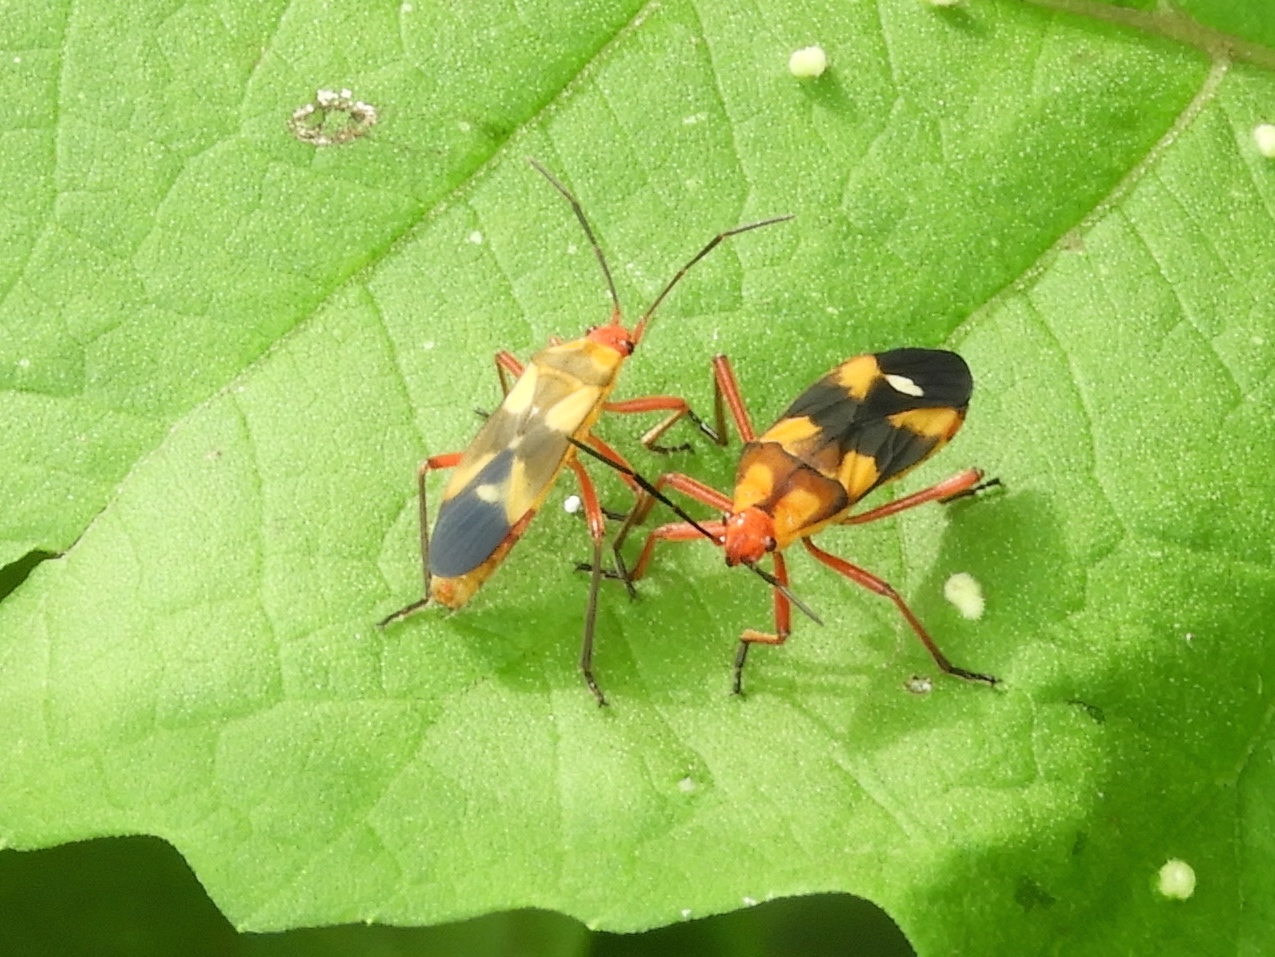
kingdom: Animalia
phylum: Arthropoda
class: Insecta
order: Hemiptera
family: Lygaeidae
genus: Oncopeltus
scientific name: Oncopeltus guttaloides
